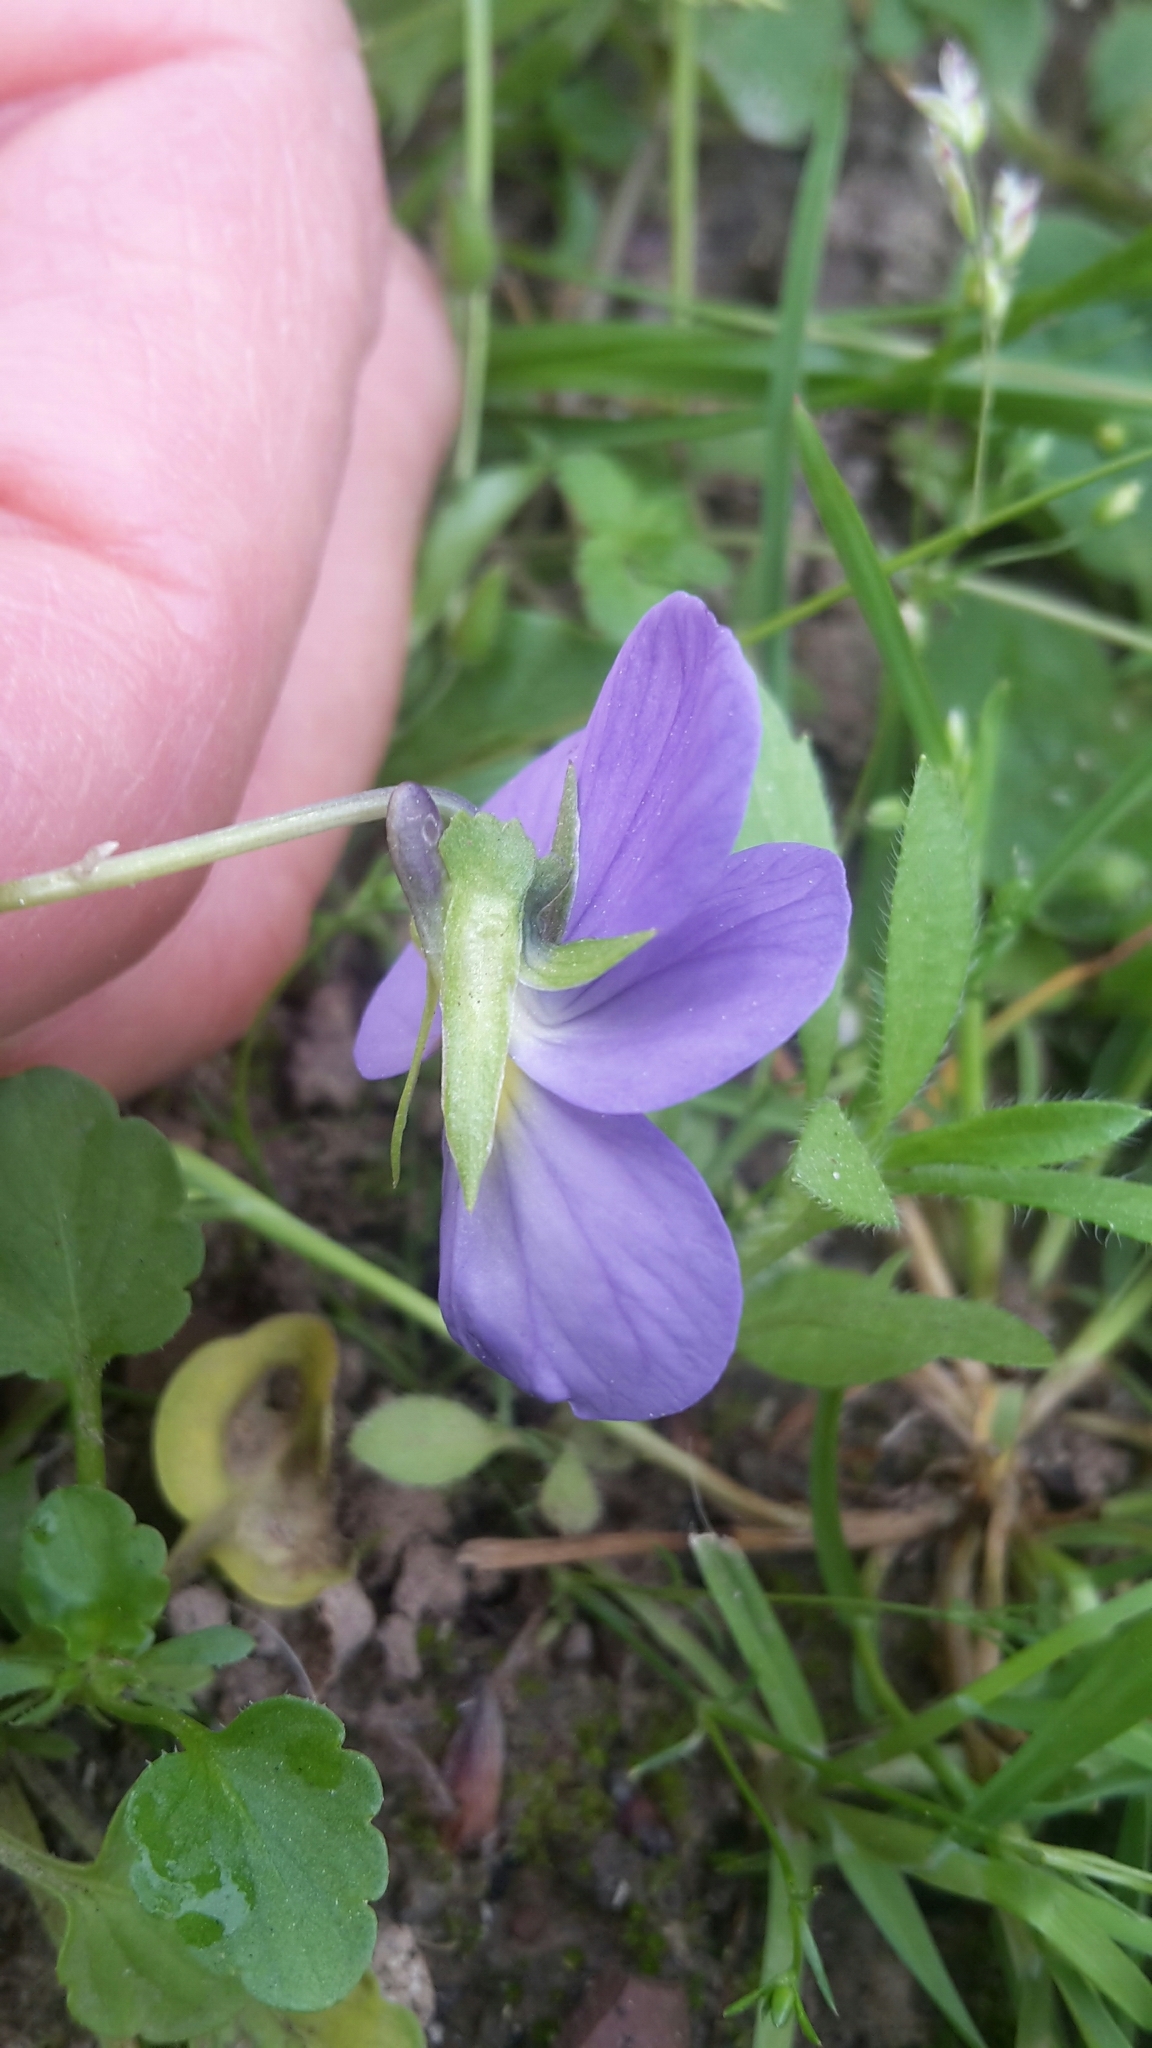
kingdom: Plantae
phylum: Tracheophyta
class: Magnoliopsida
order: Malpighiales
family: Violaceae
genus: Viola
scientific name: Viola tricolor
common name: Pansy
